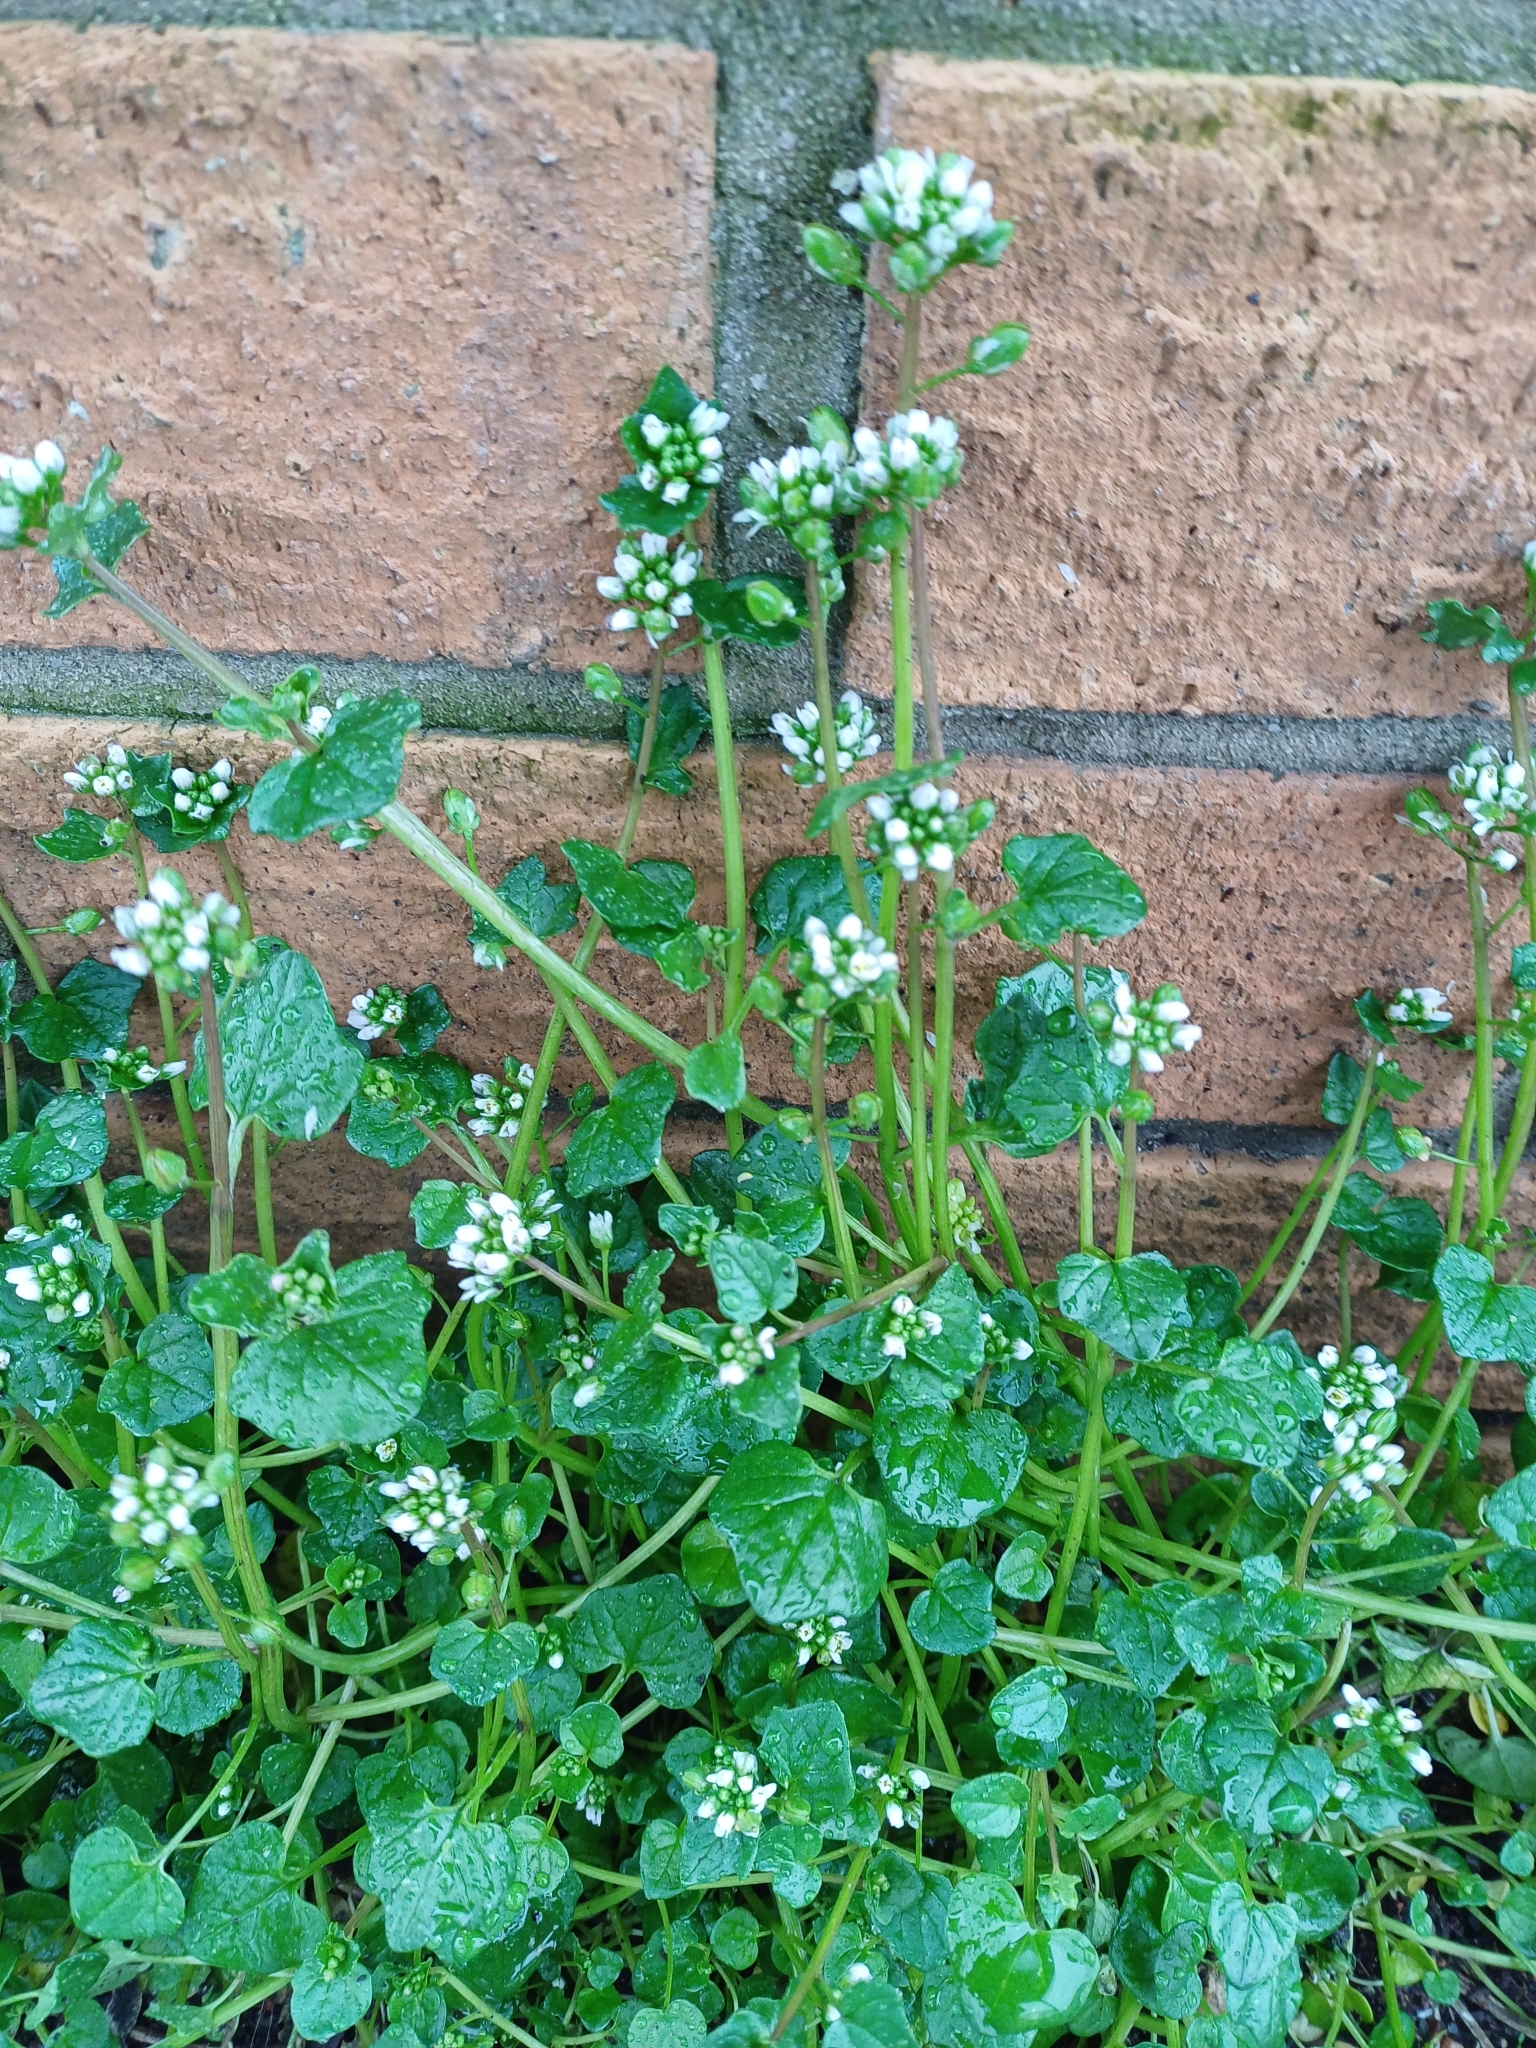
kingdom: Plantae
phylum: Tracheophyta
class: Magnoliopsida
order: Brassicales
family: Brassicaceae
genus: Cochlearia
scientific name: Cochlearia danica
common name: Early scurvygrass
